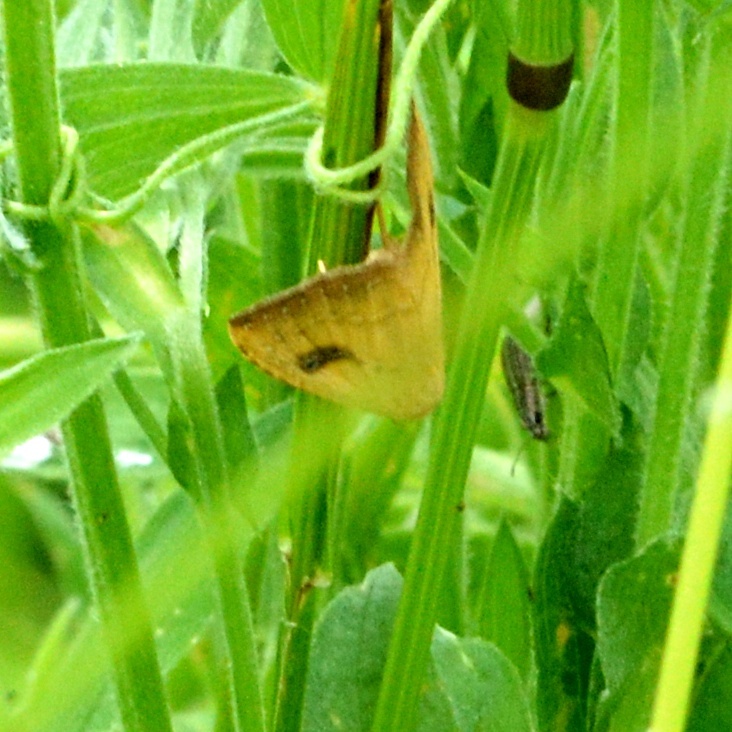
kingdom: Animalia
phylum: Arthropoda
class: Insecta
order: Lepidoptera
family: Erebidae
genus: Rivula
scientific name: Rivula sericealis
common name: Straw dot
